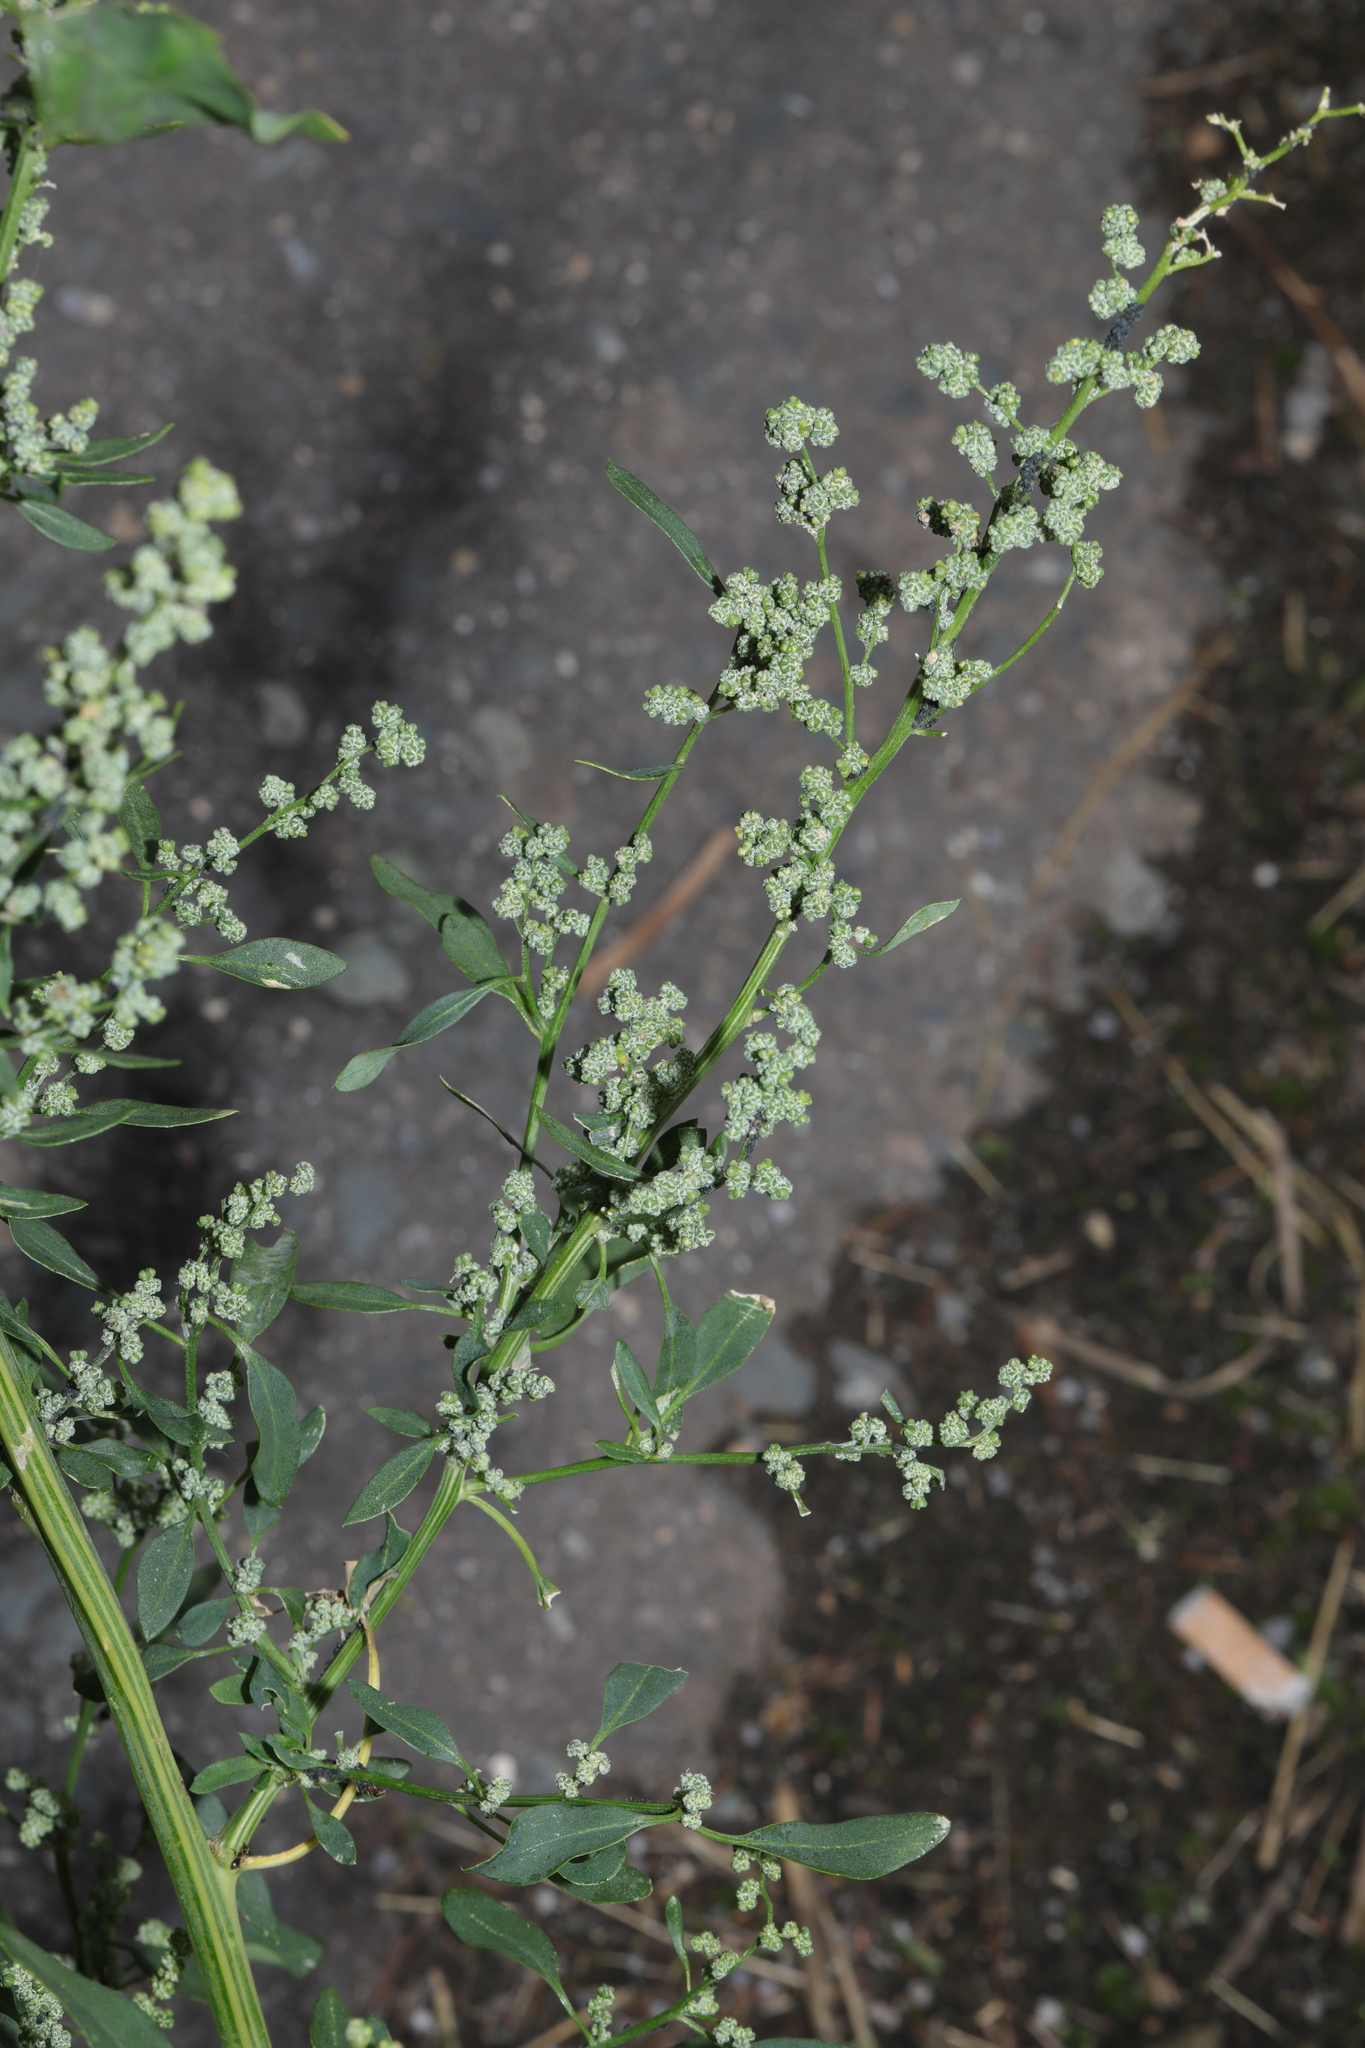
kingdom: Plantae
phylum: Tracheophyta
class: Magnoliopsida
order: Caryophyllales
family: Amaranthaceae
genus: Chenopodium
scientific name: Chenopodium album
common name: Fat-hen
